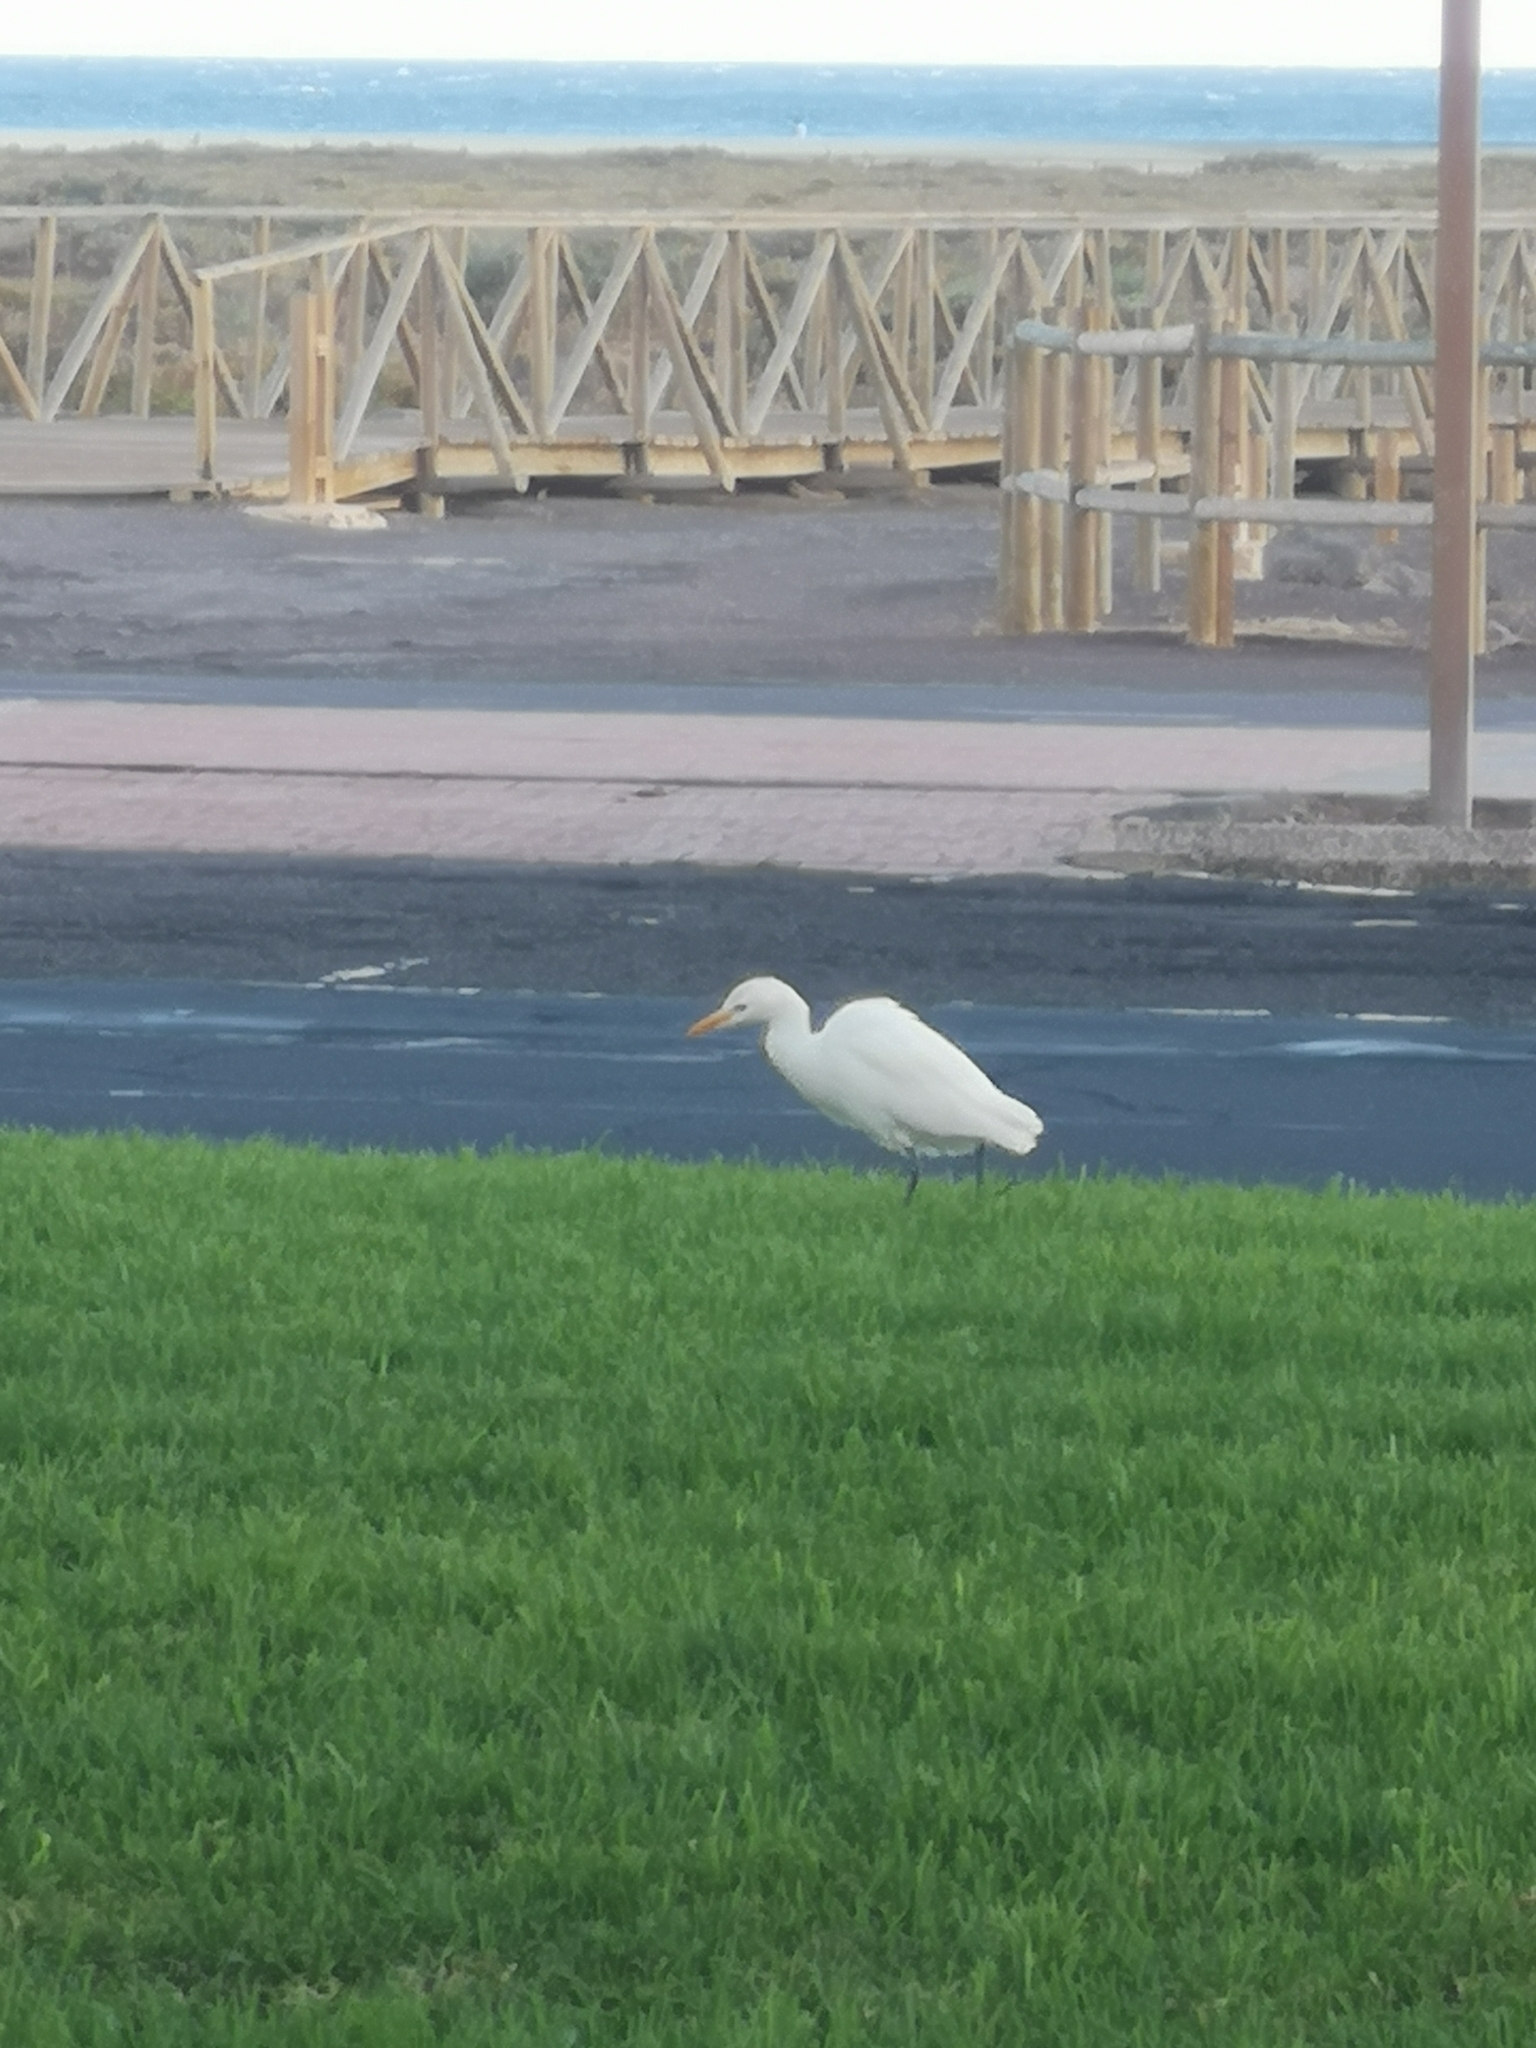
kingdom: Animalia
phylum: Chordata
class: Aves
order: Pelecaniformes
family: Ardeidae
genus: Bubulcus
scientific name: Bubulcus ibis
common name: Cattle egret
